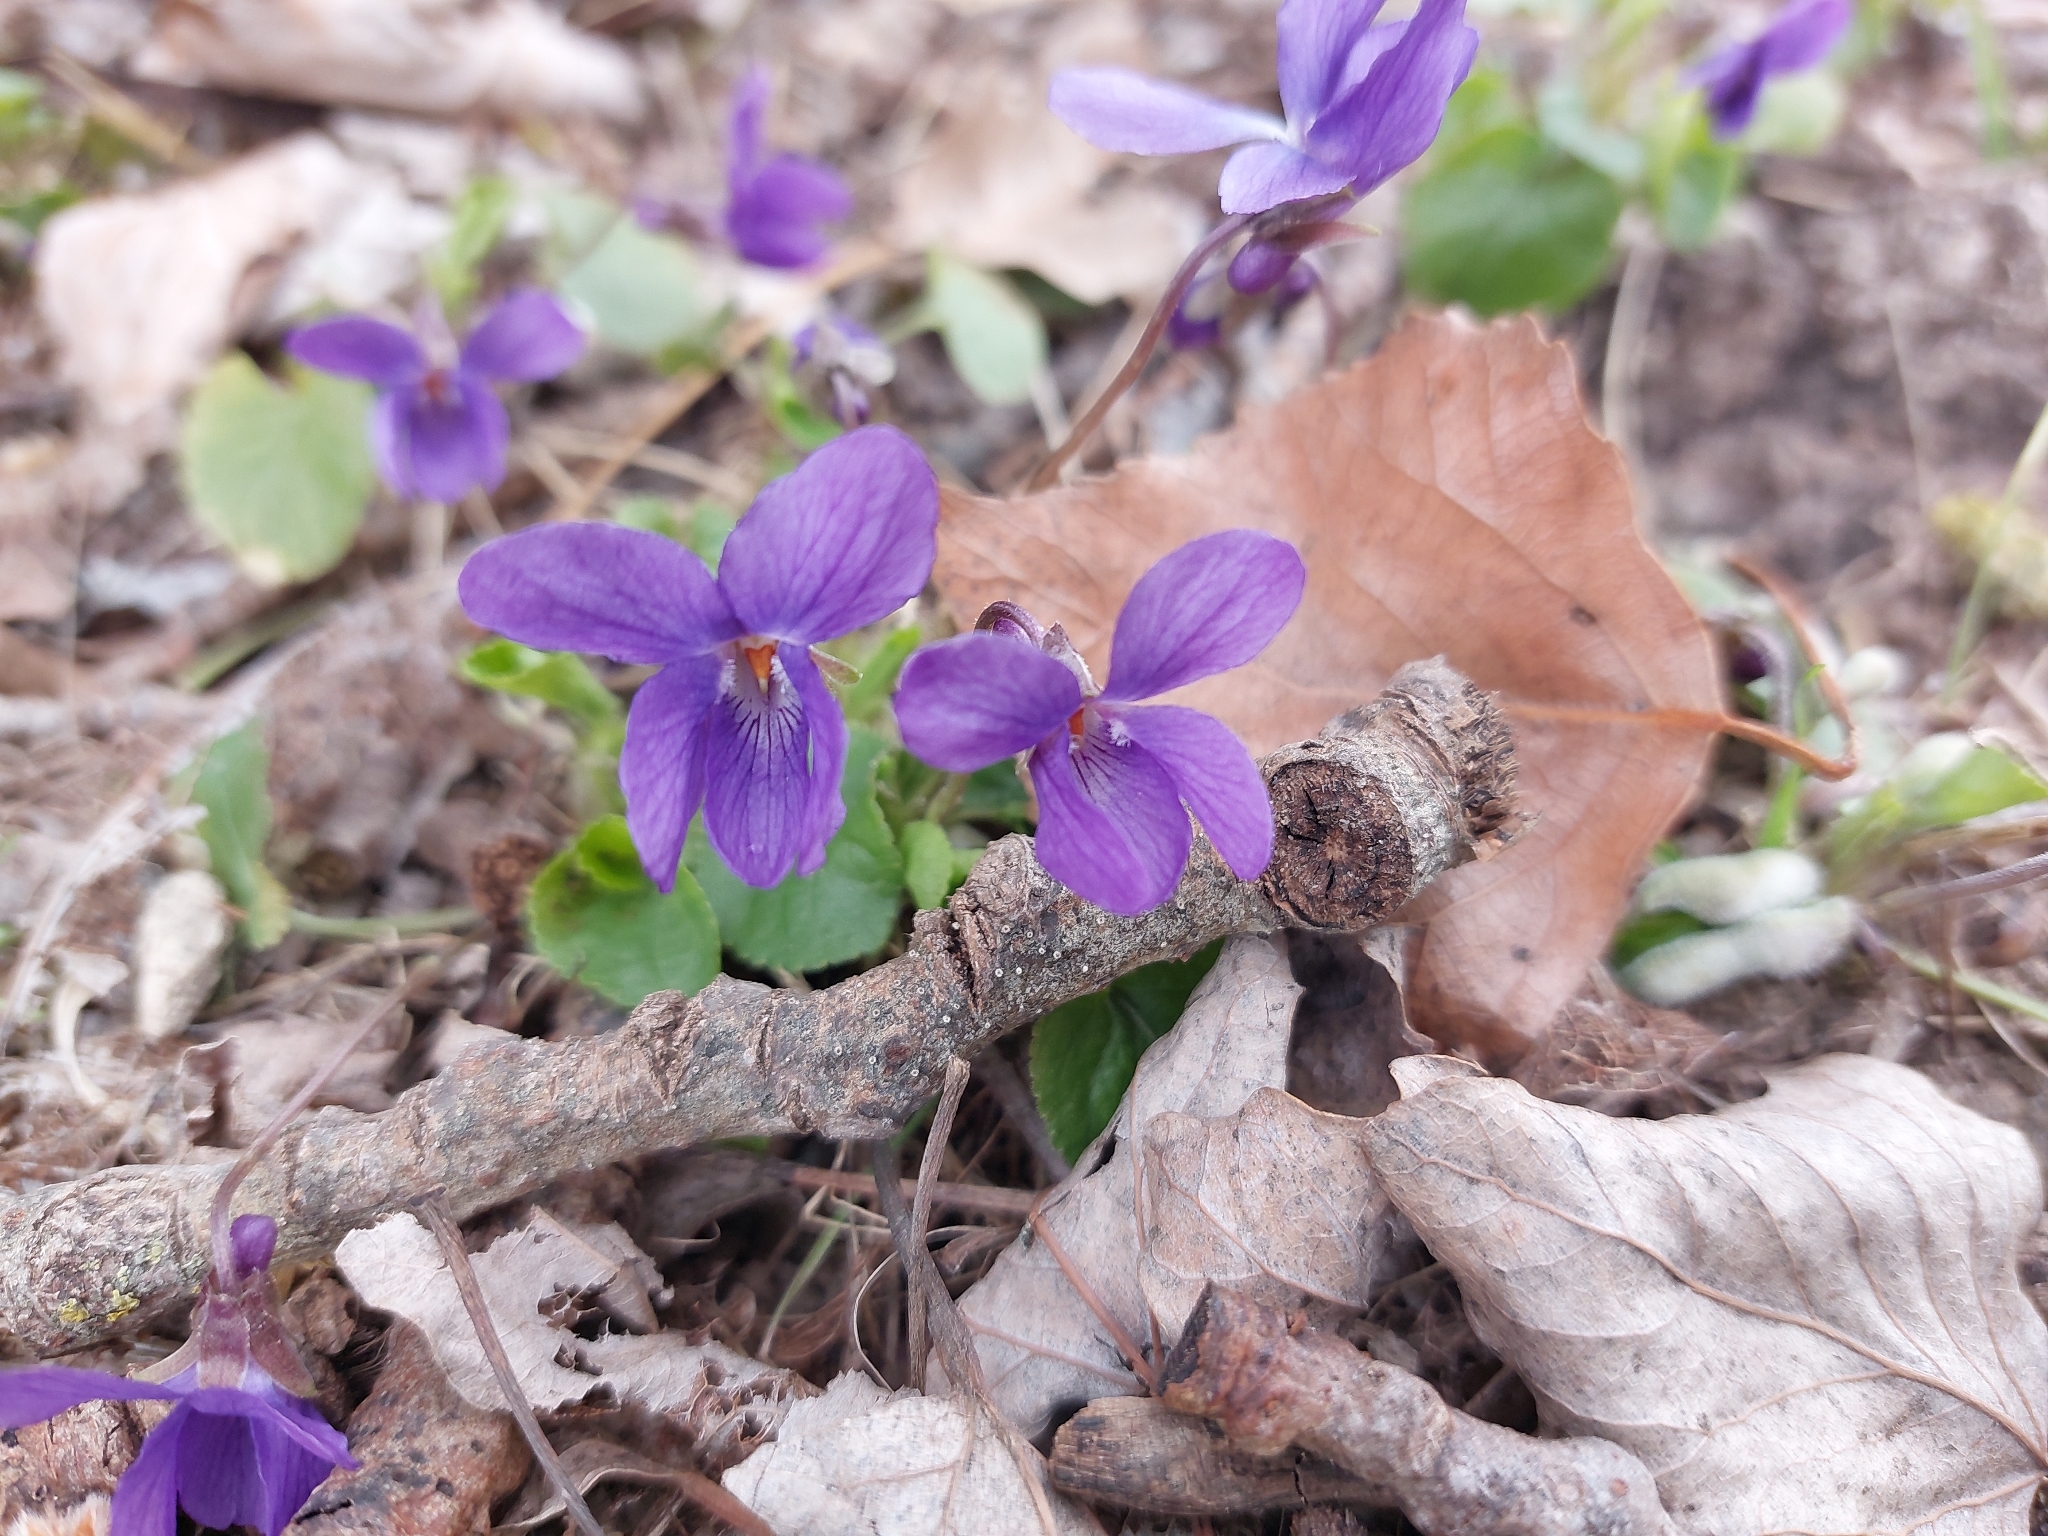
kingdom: Plantae
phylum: Tracheophyta
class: Magnoliopsida
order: Malpighiales
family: Violaceae
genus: Viola
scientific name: Viola odorata
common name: Sweet violet
